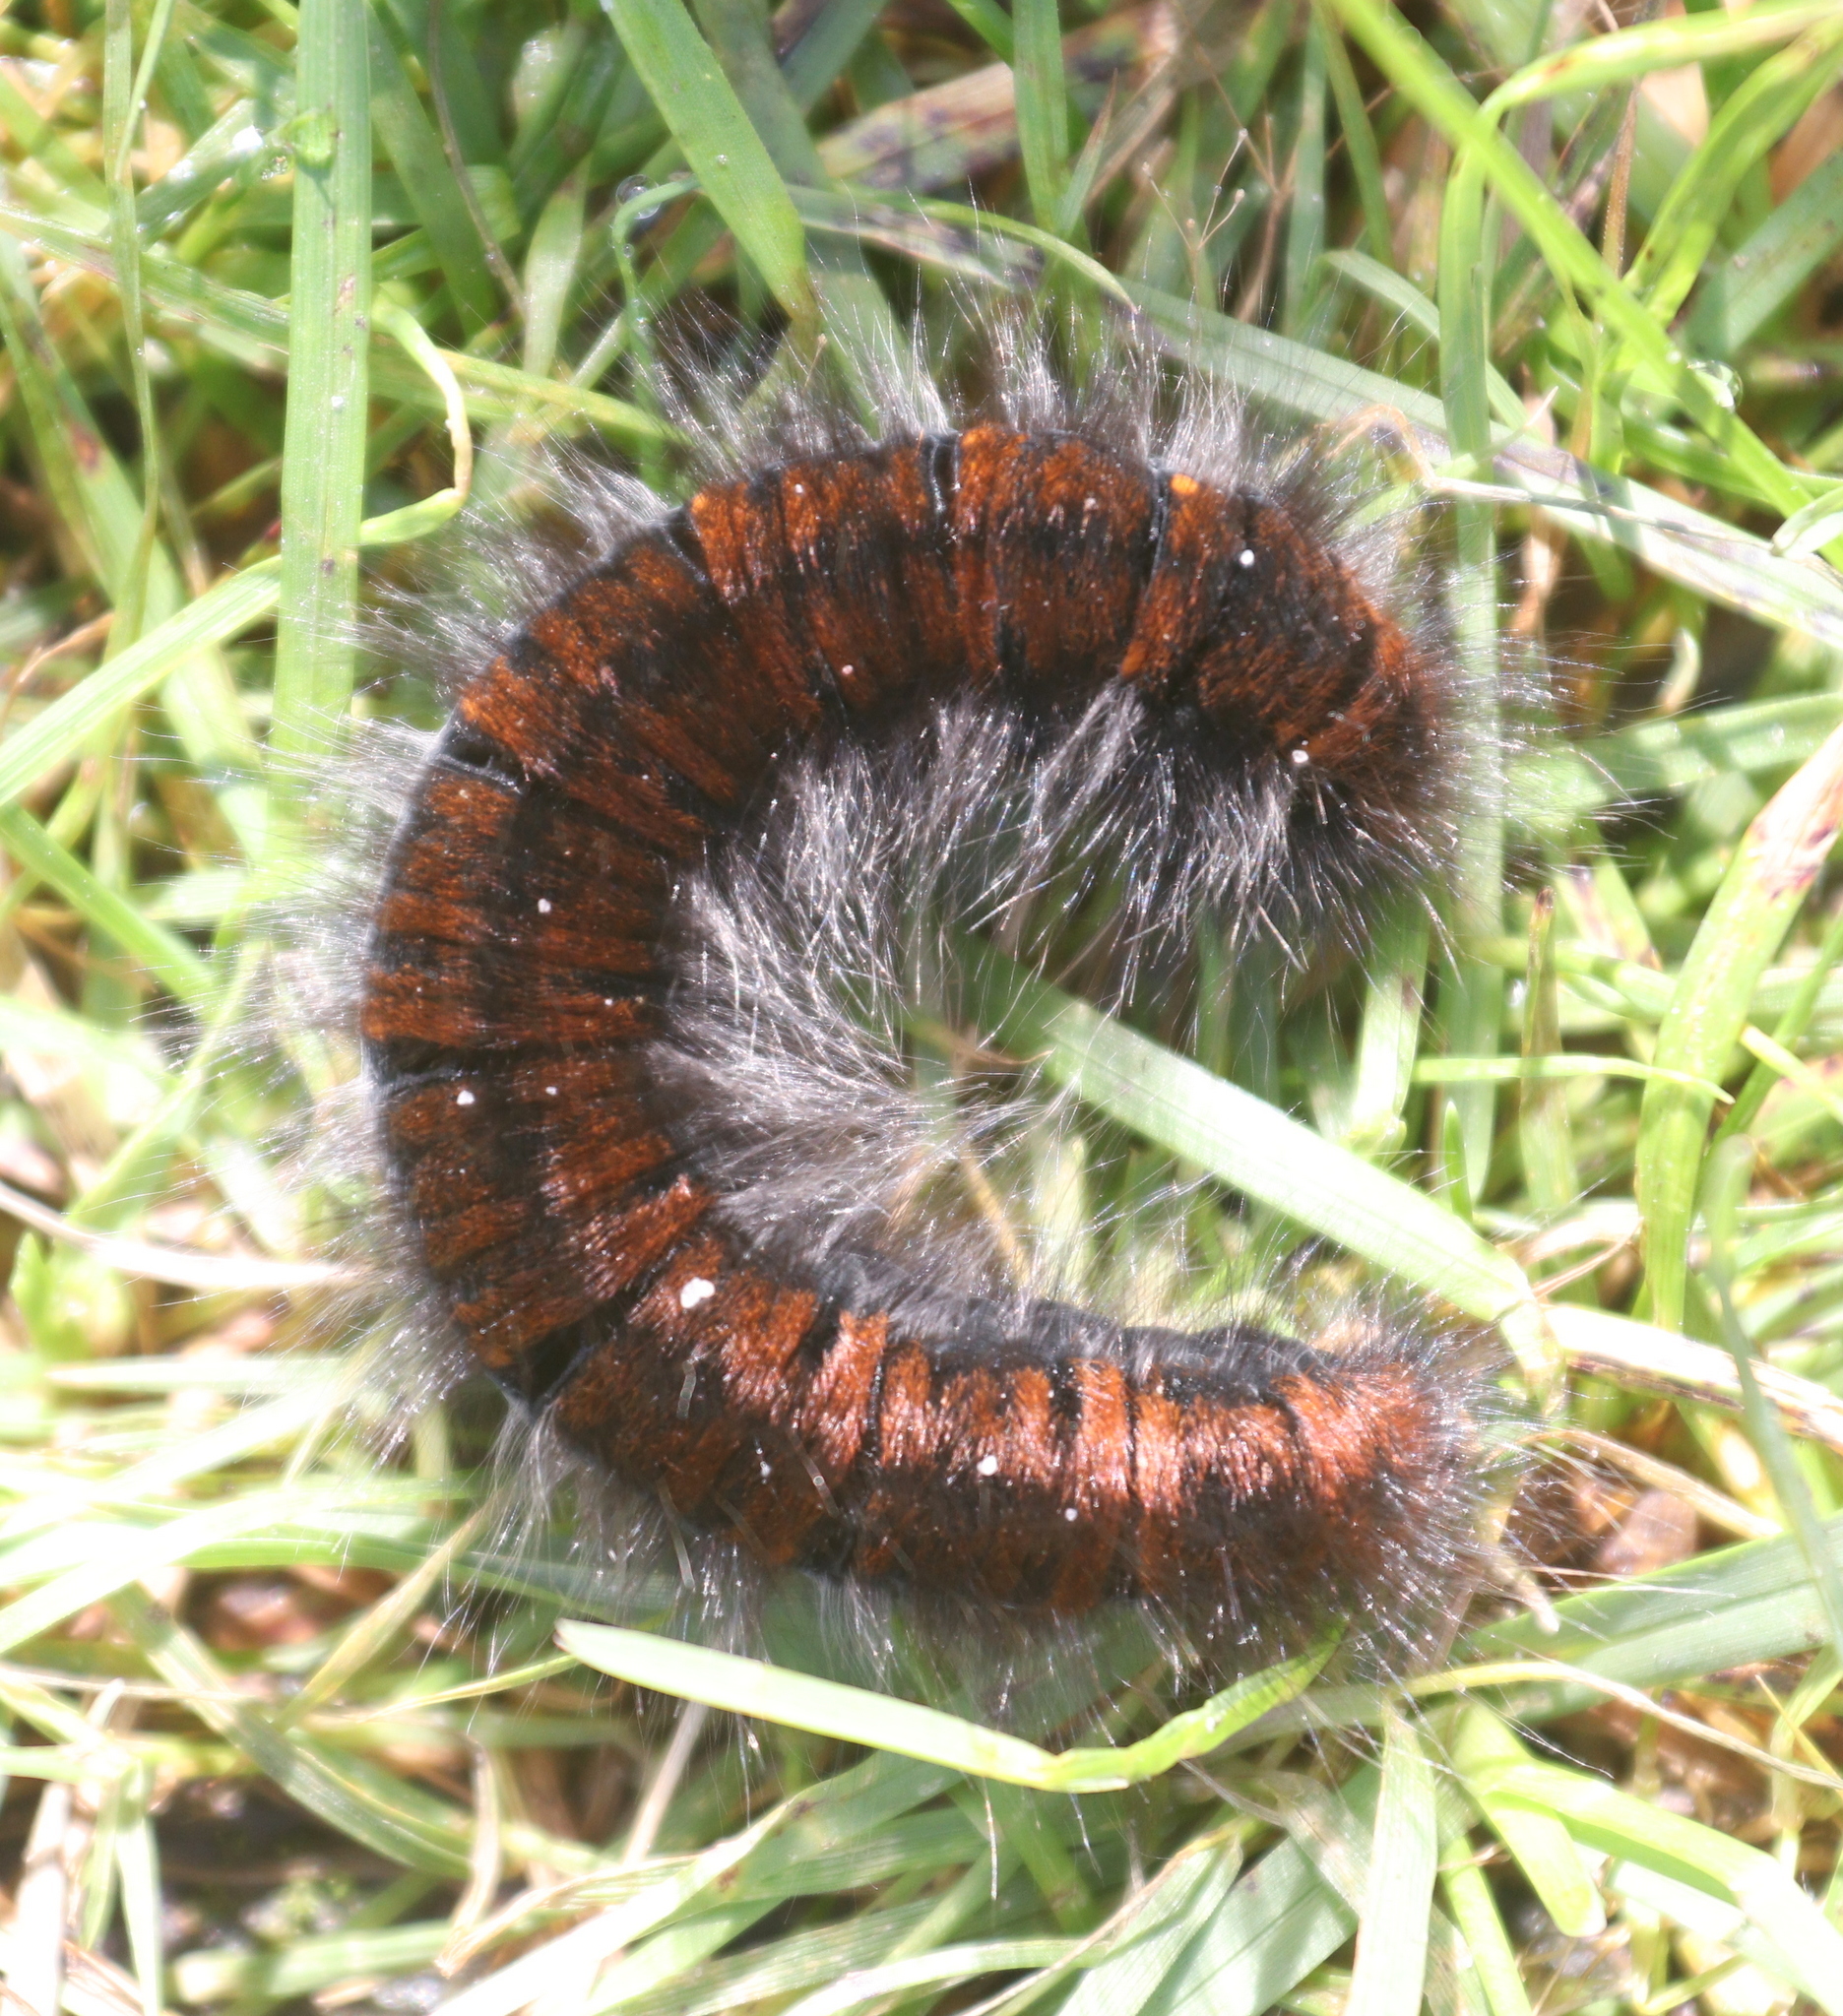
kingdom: Animalia
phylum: Arthropoda
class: Insecta
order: Lepidoptera
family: Lasiocampidae
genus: Macrothylacia
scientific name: Macrothylacia rubi
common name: Fox moth
